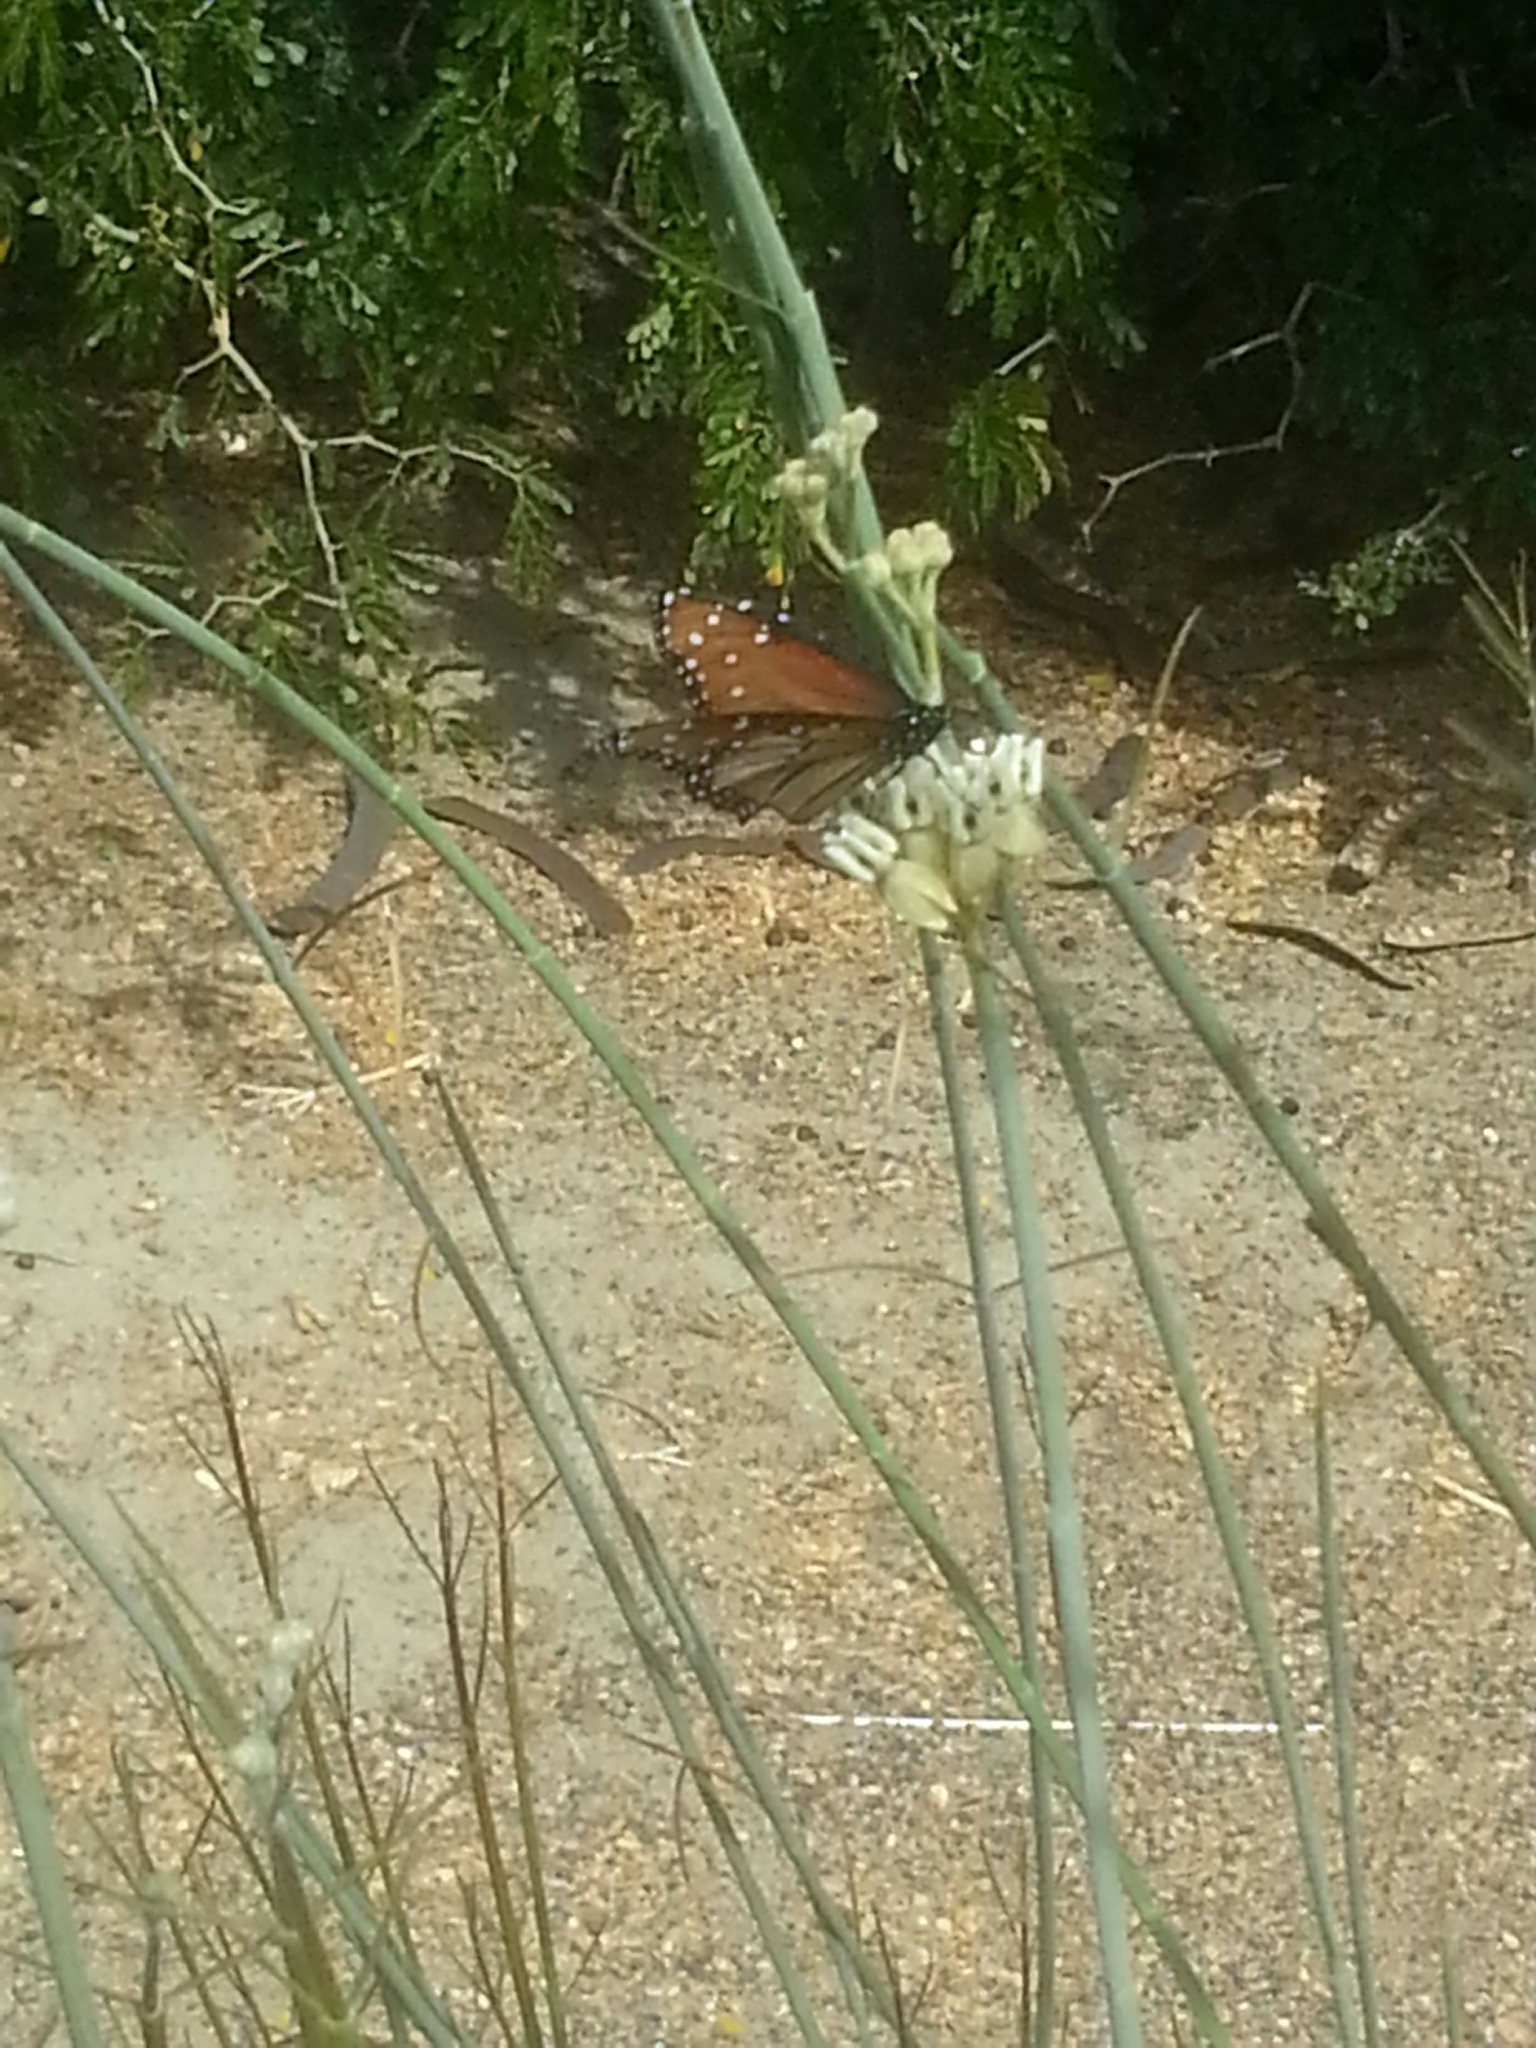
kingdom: Animalia
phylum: Arthropoda
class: Insecta
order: Lepidoptera
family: Nymphalidae
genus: Danaus
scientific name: Danaus gilippus
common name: Queen
